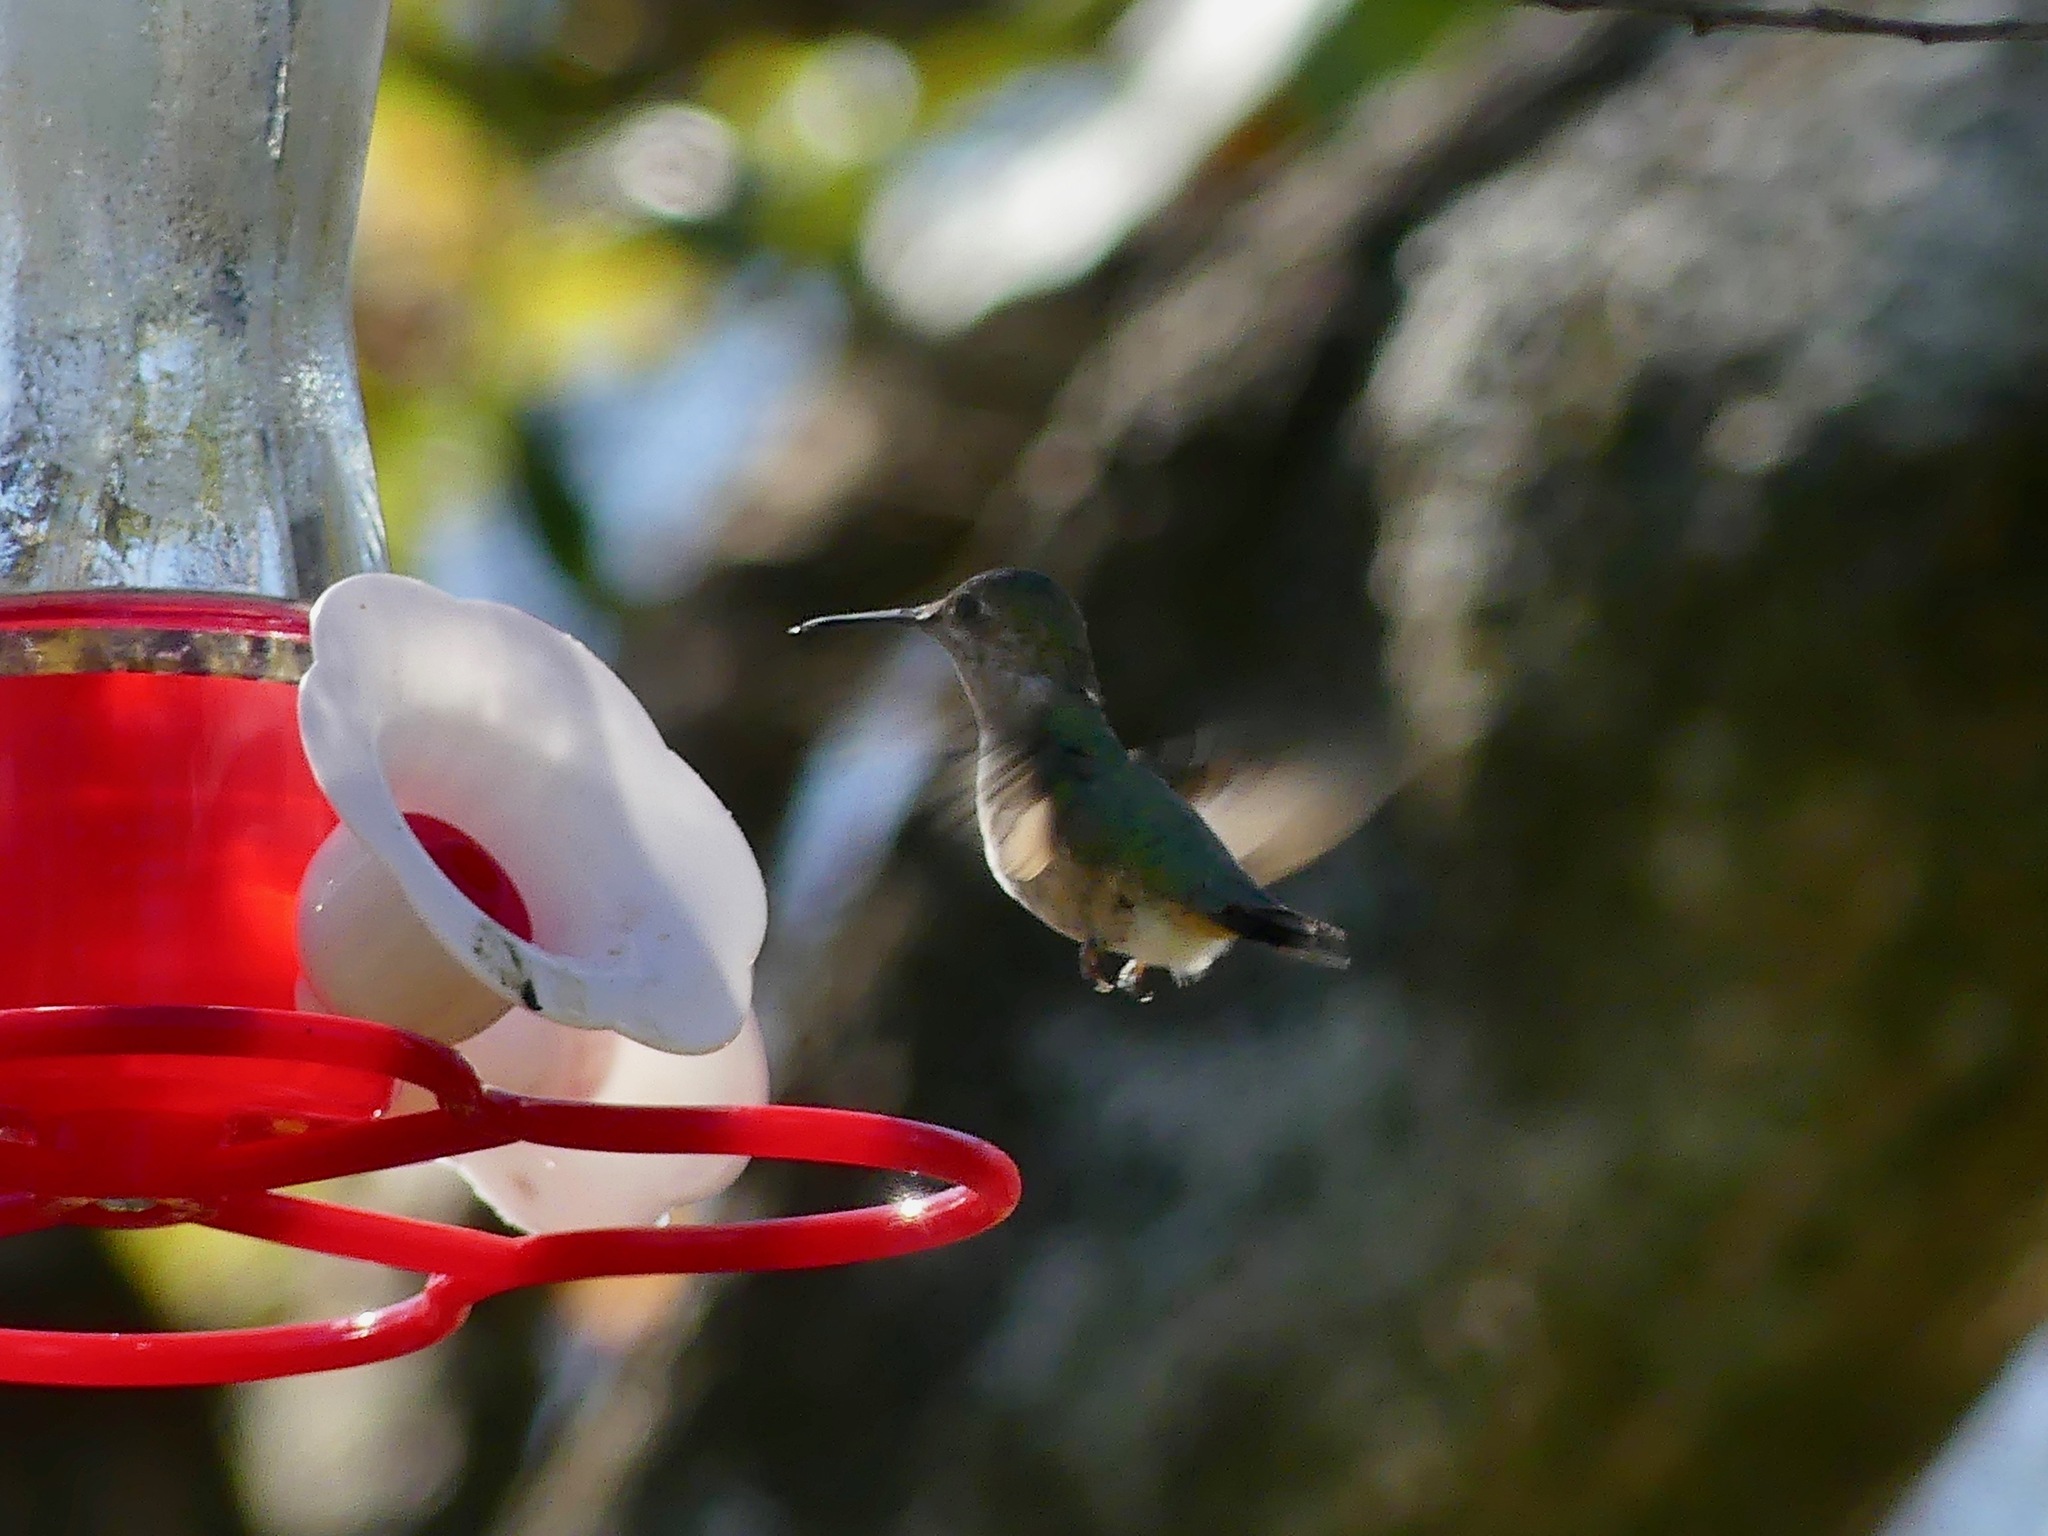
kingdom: Animalia
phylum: Chordata
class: Aves
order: Apodiformes
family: Trochilidae
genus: Selasphorus
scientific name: Selasphorus calliope
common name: Calliope hummingbird
